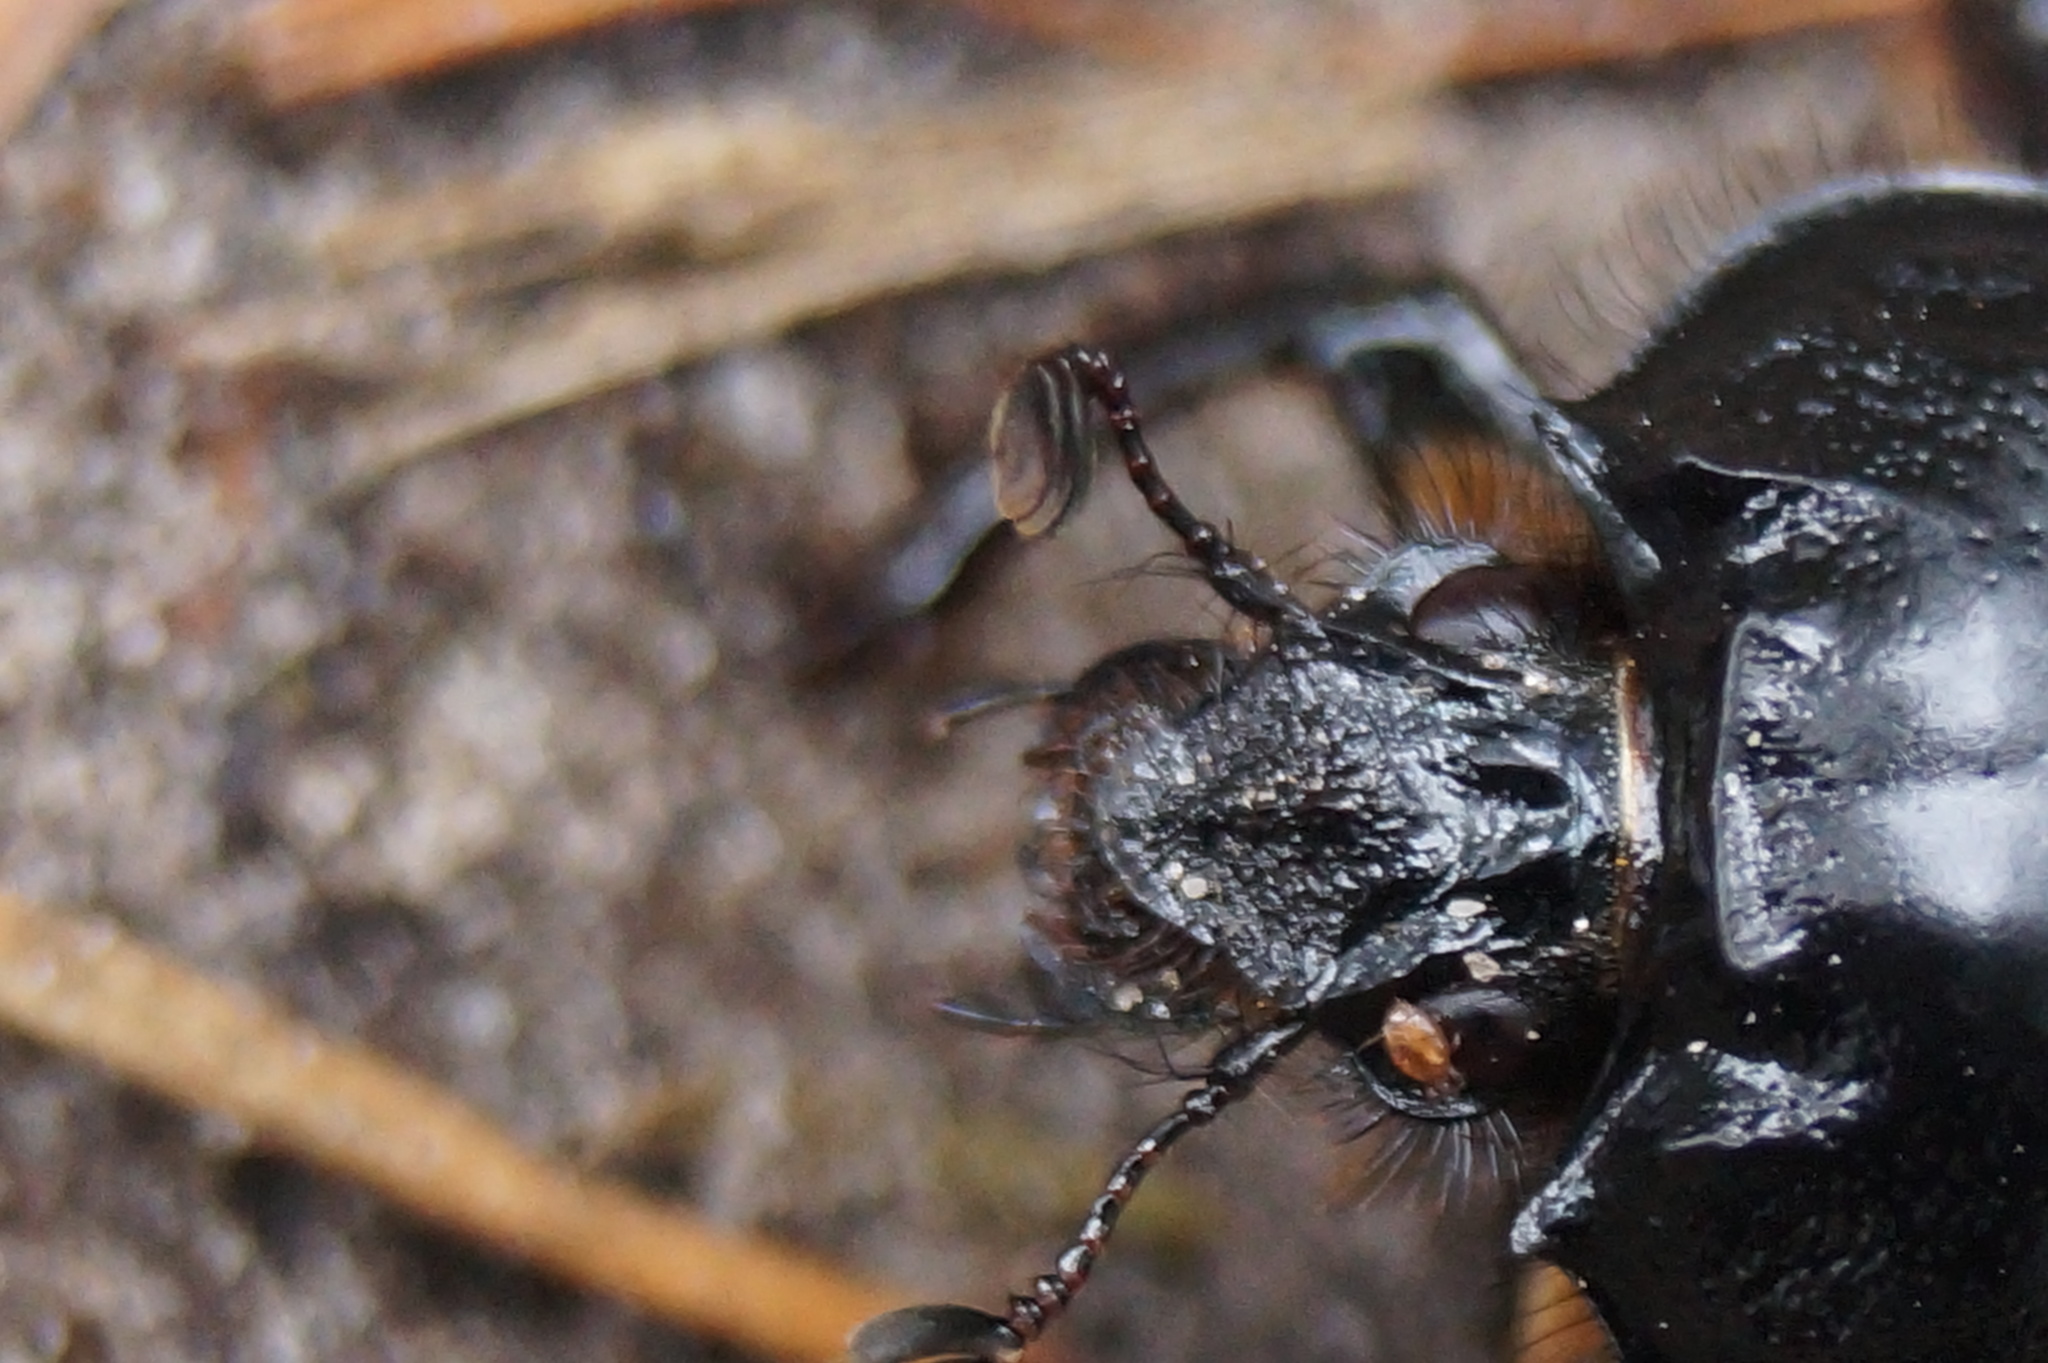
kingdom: Animalia
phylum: Arthropoda
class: Insecta
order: Coleoptera
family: Geotrupidae
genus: Typhaeus
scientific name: Typhaeus typhoeus
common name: Minotaur beetle
